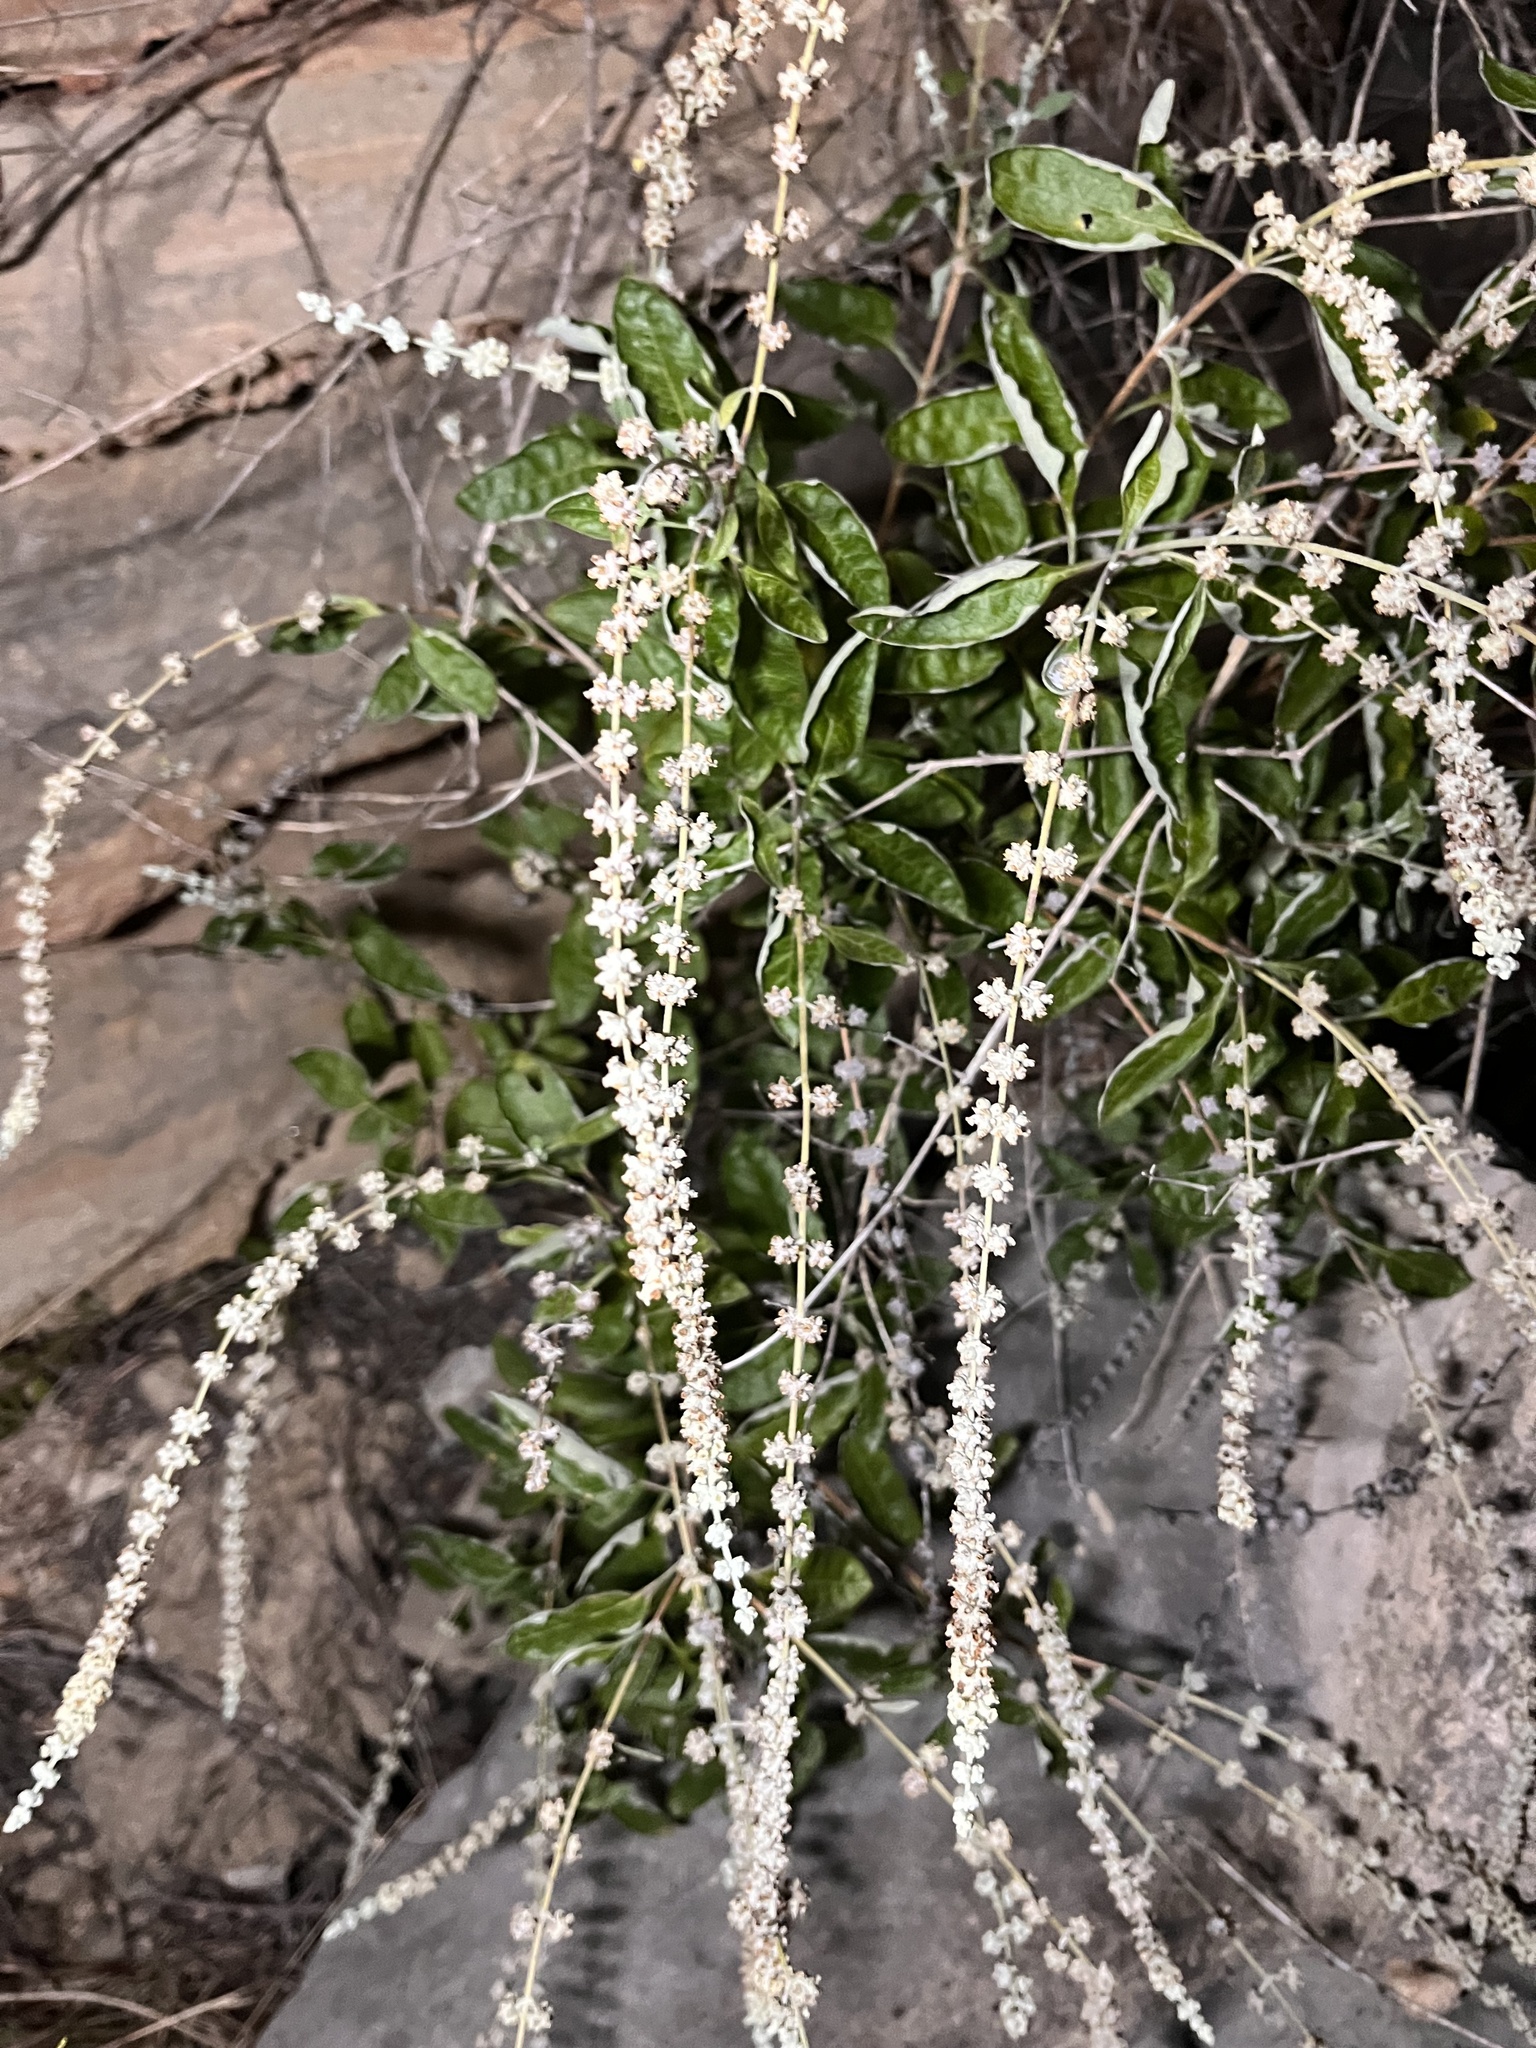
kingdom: Plantae
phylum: Tracheophyta
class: Magnoliopsida
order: Lamiales
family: Scrophulariaceae
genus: Buddleja
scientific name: Buddleja racemosa
